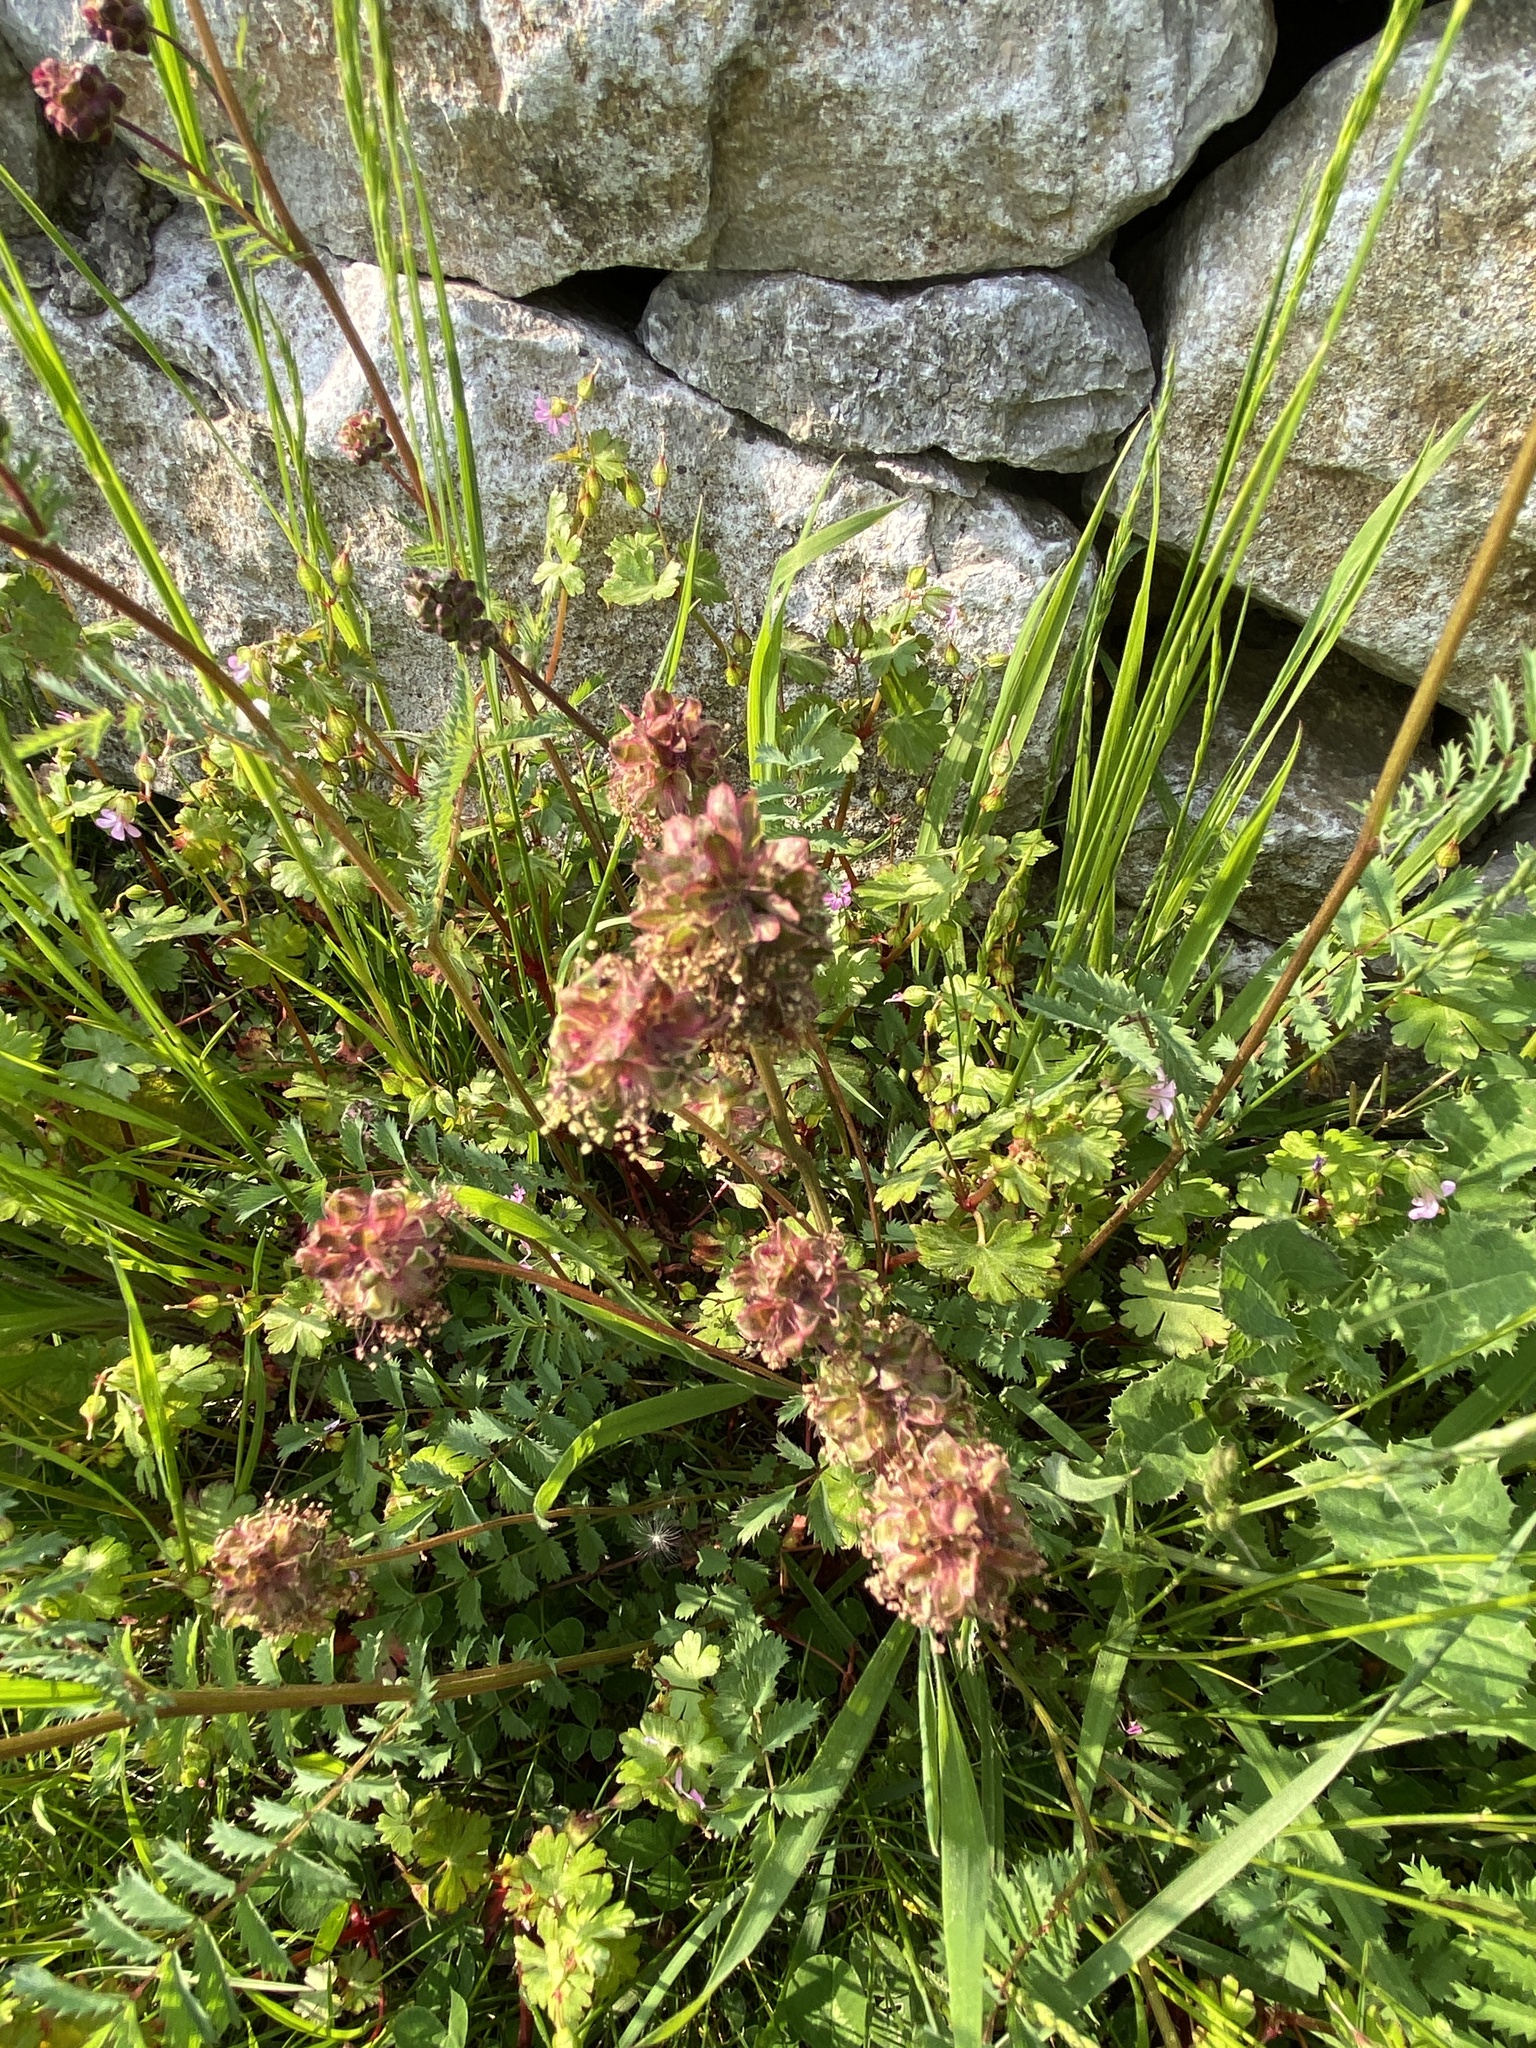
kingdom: Plantae
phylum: Tracheophyta
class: Magnoliopsida
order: Rosales
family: Rosaceae
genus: Poterium
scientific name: Poterium sanguisorba
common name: Salad burnet
